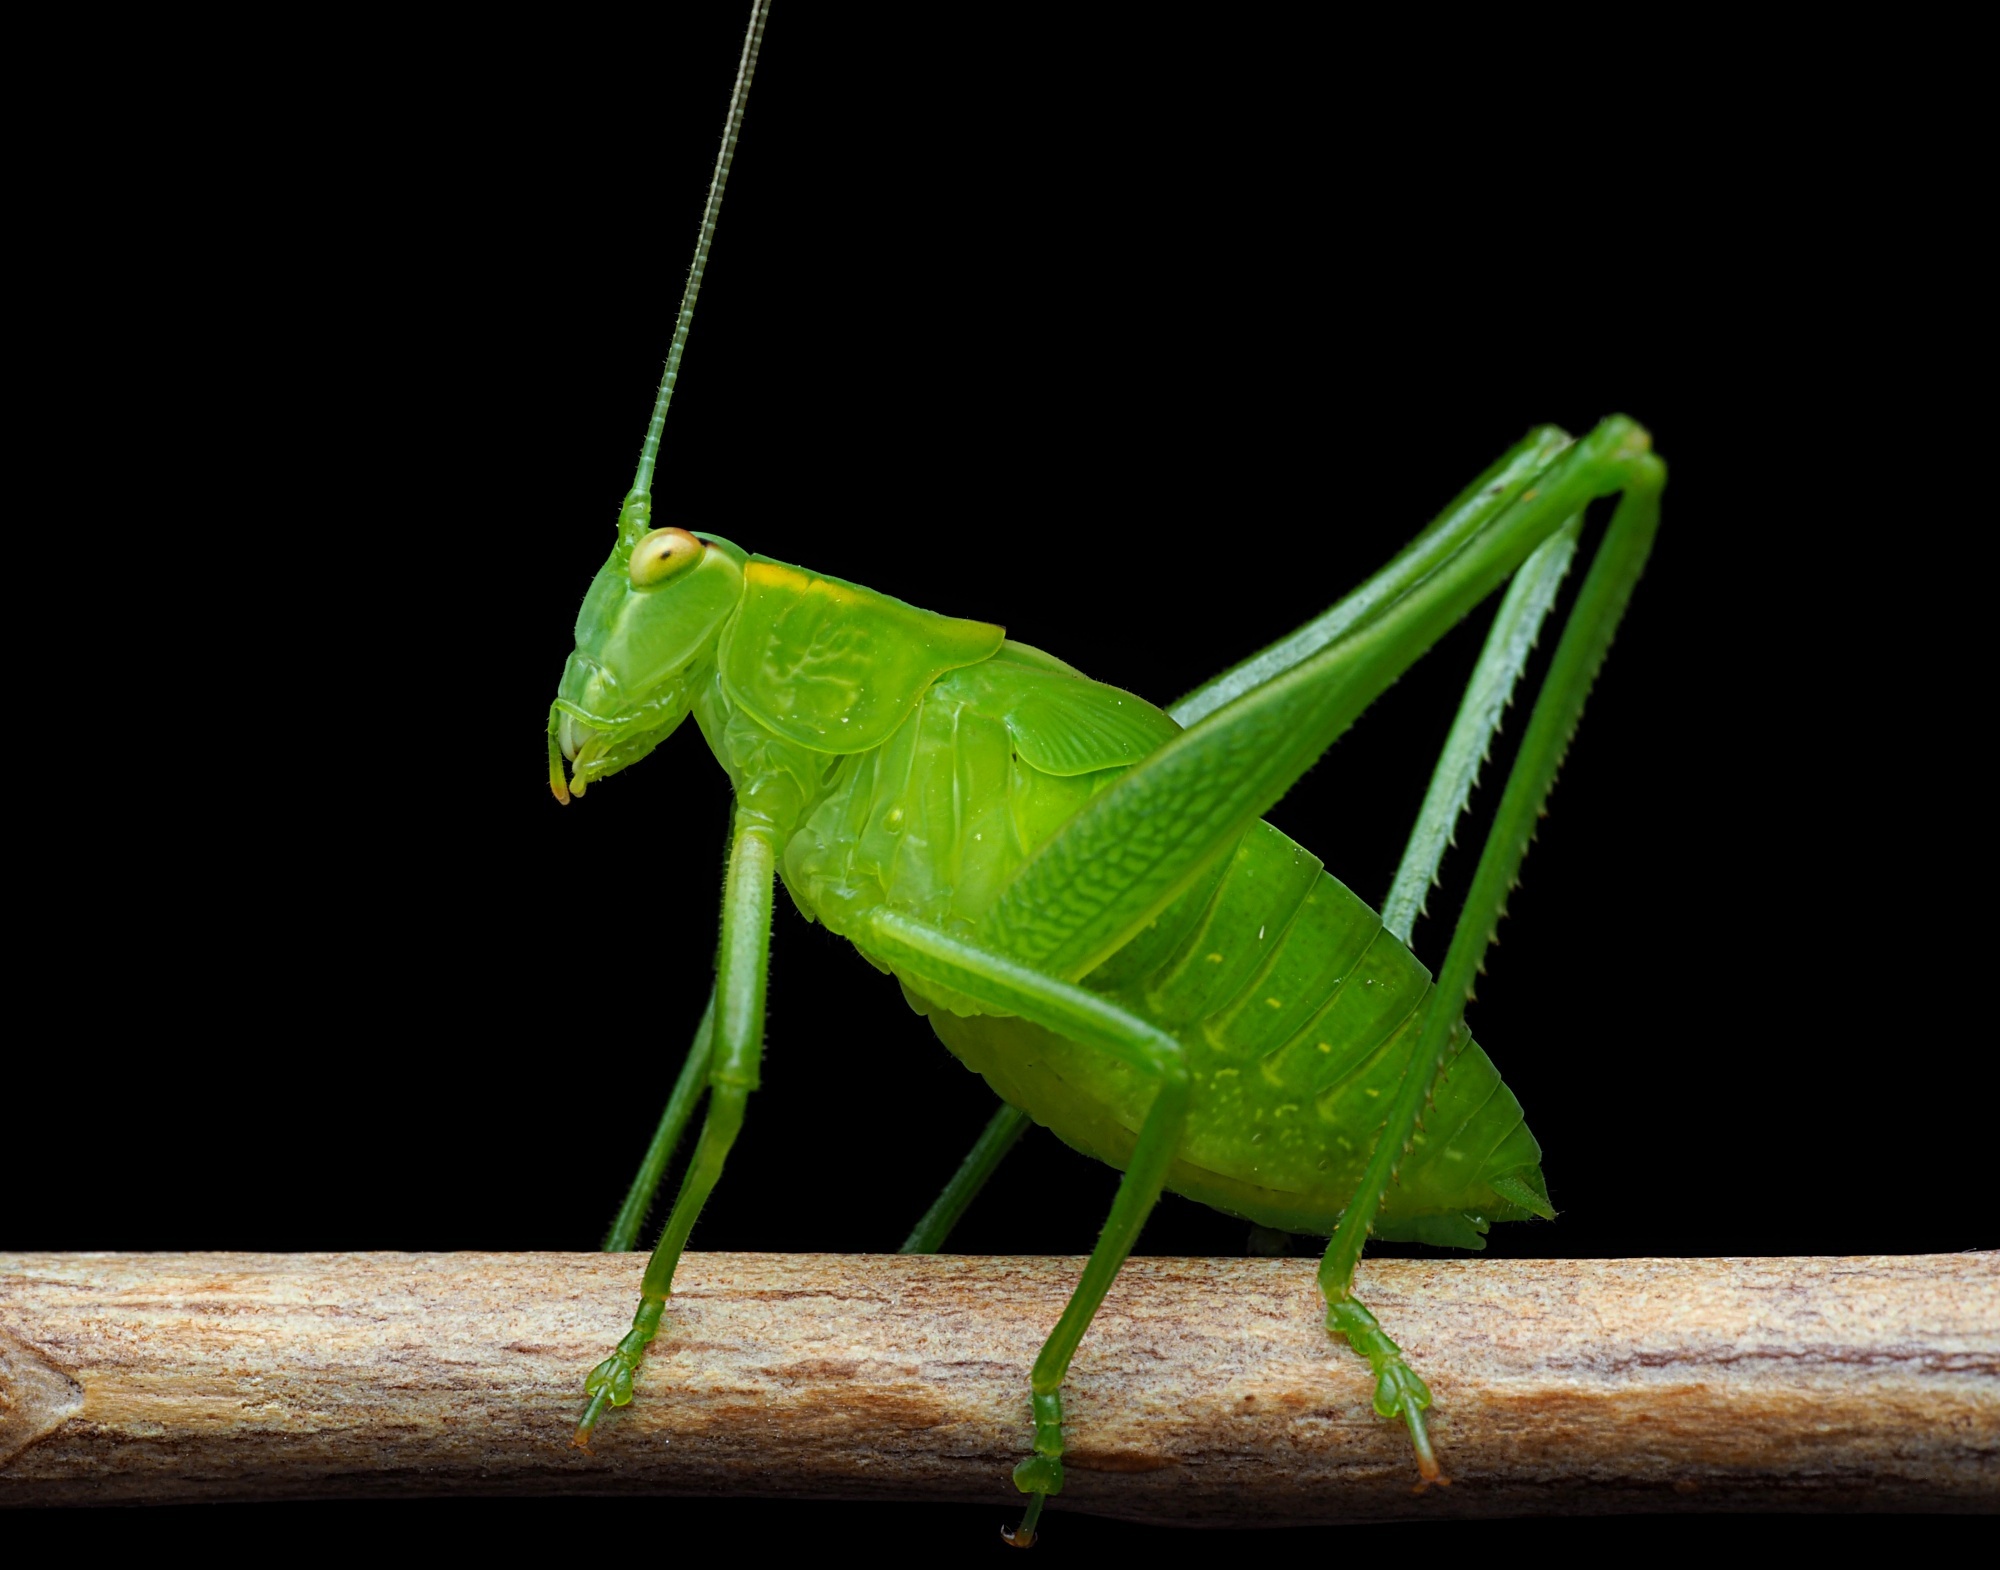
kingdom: Animalia
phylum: Arthropoda
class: Insecta
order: Orthoptera
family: Tettigoniidae
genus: Caedicia
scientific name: Caedicia simplex
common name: Common garden katydid
